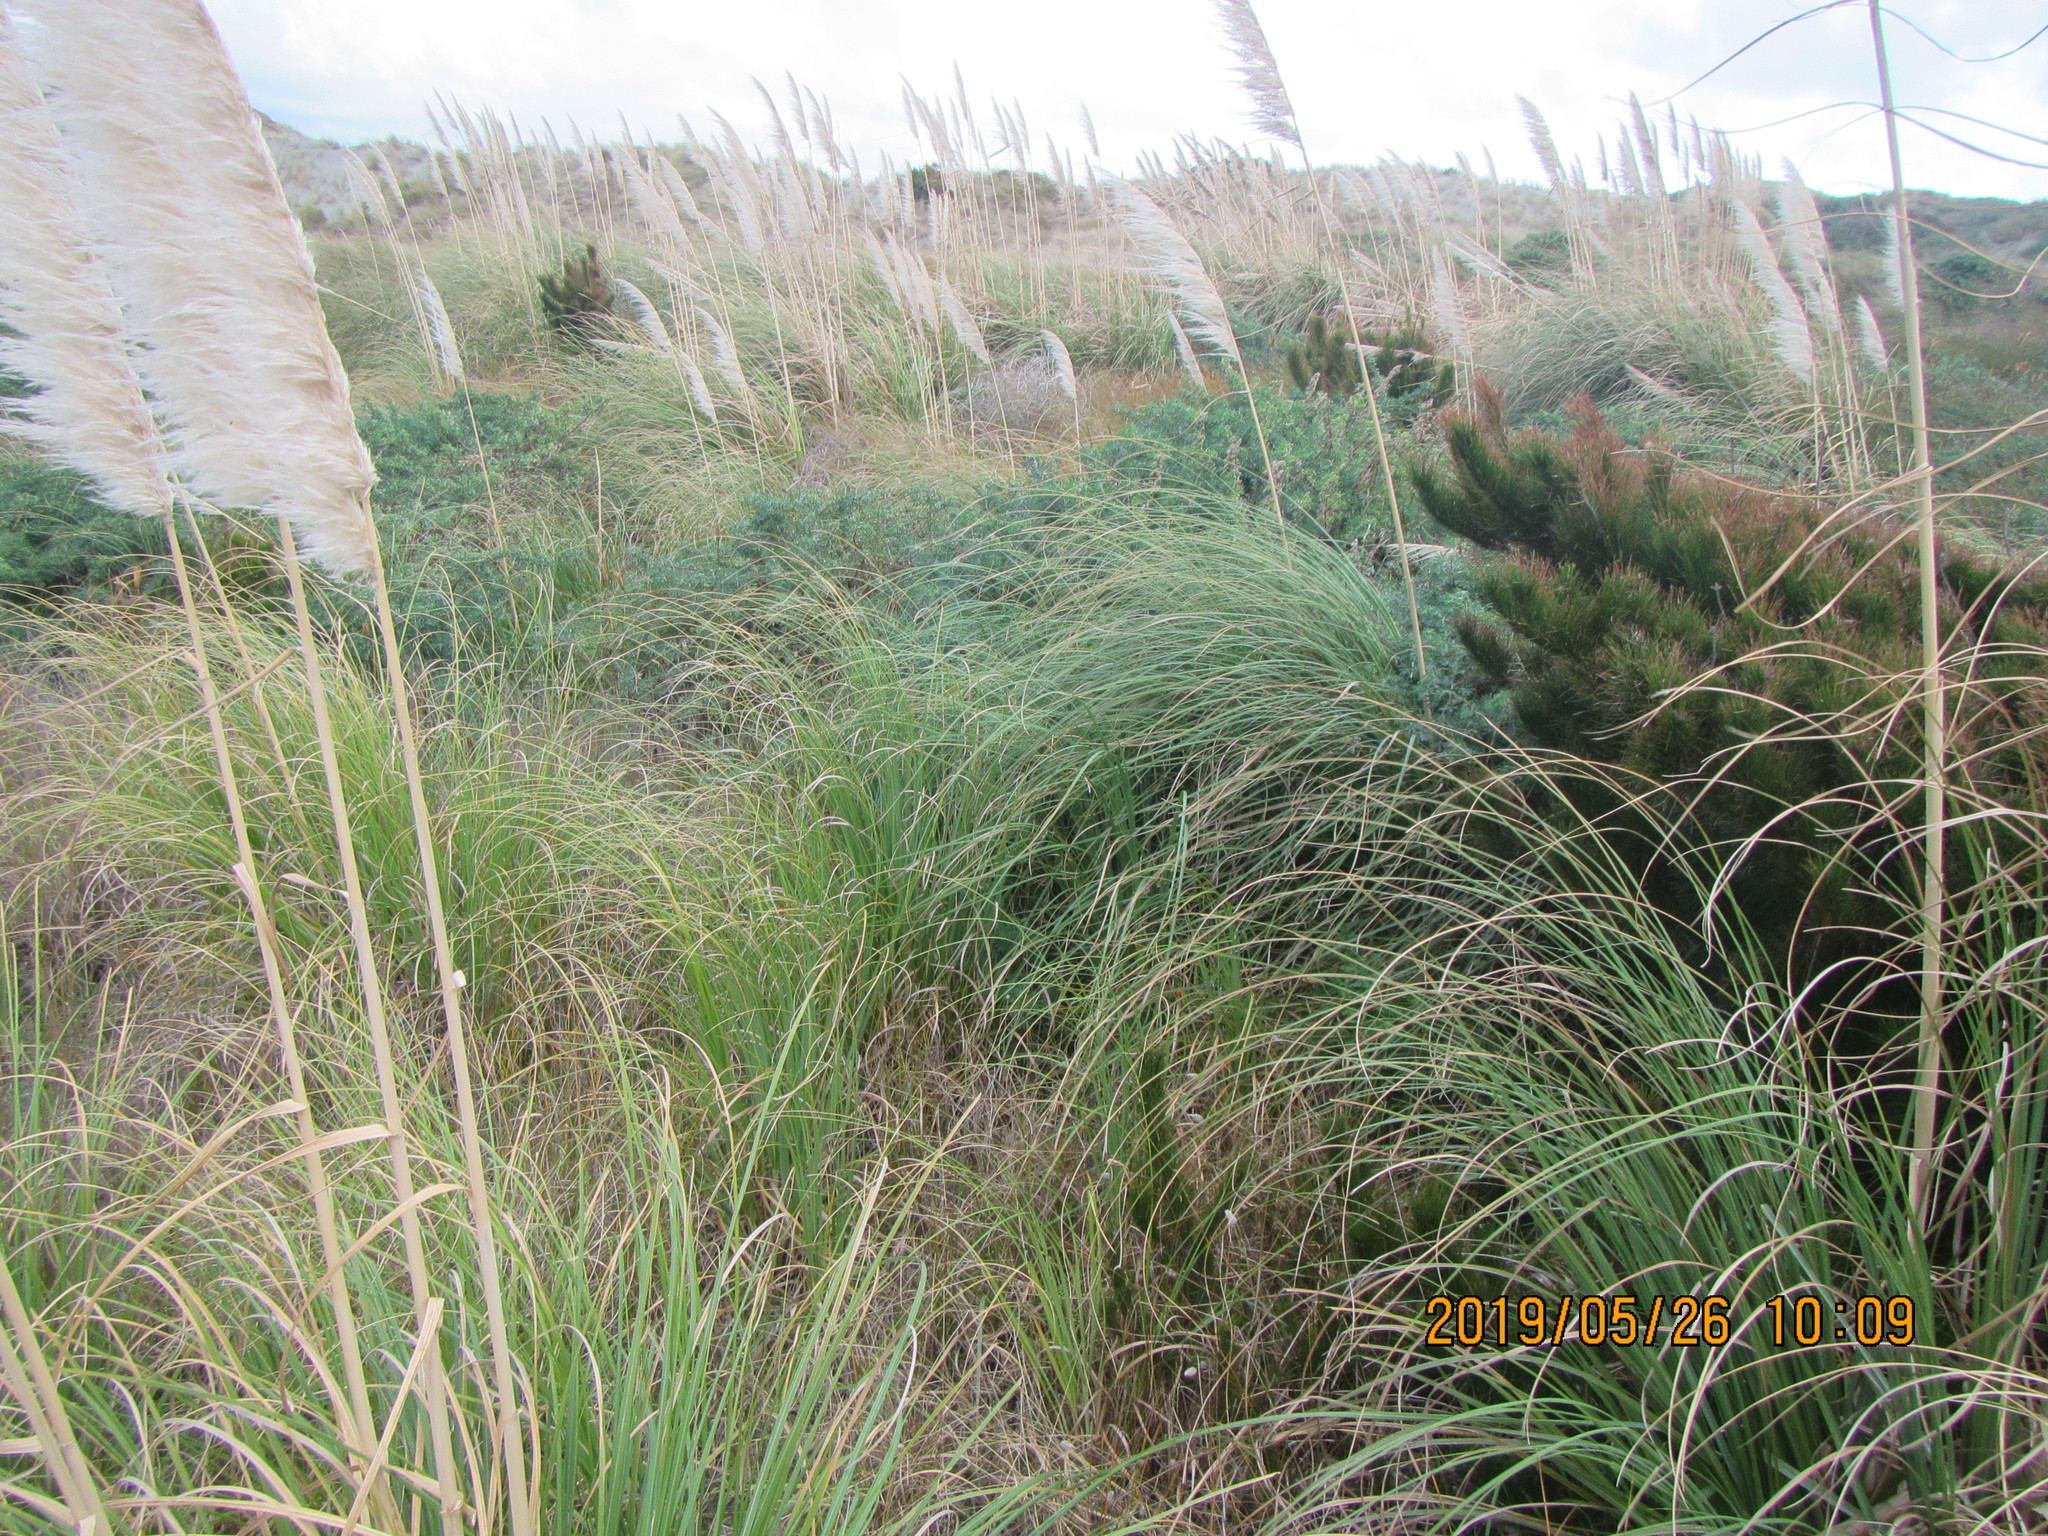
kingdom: Plantae
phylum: Tracheophyta
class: Pinopsida
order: Pinales
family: Pinaceae
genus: Pinus
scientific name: Pinus radiata
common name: Monterey pine
